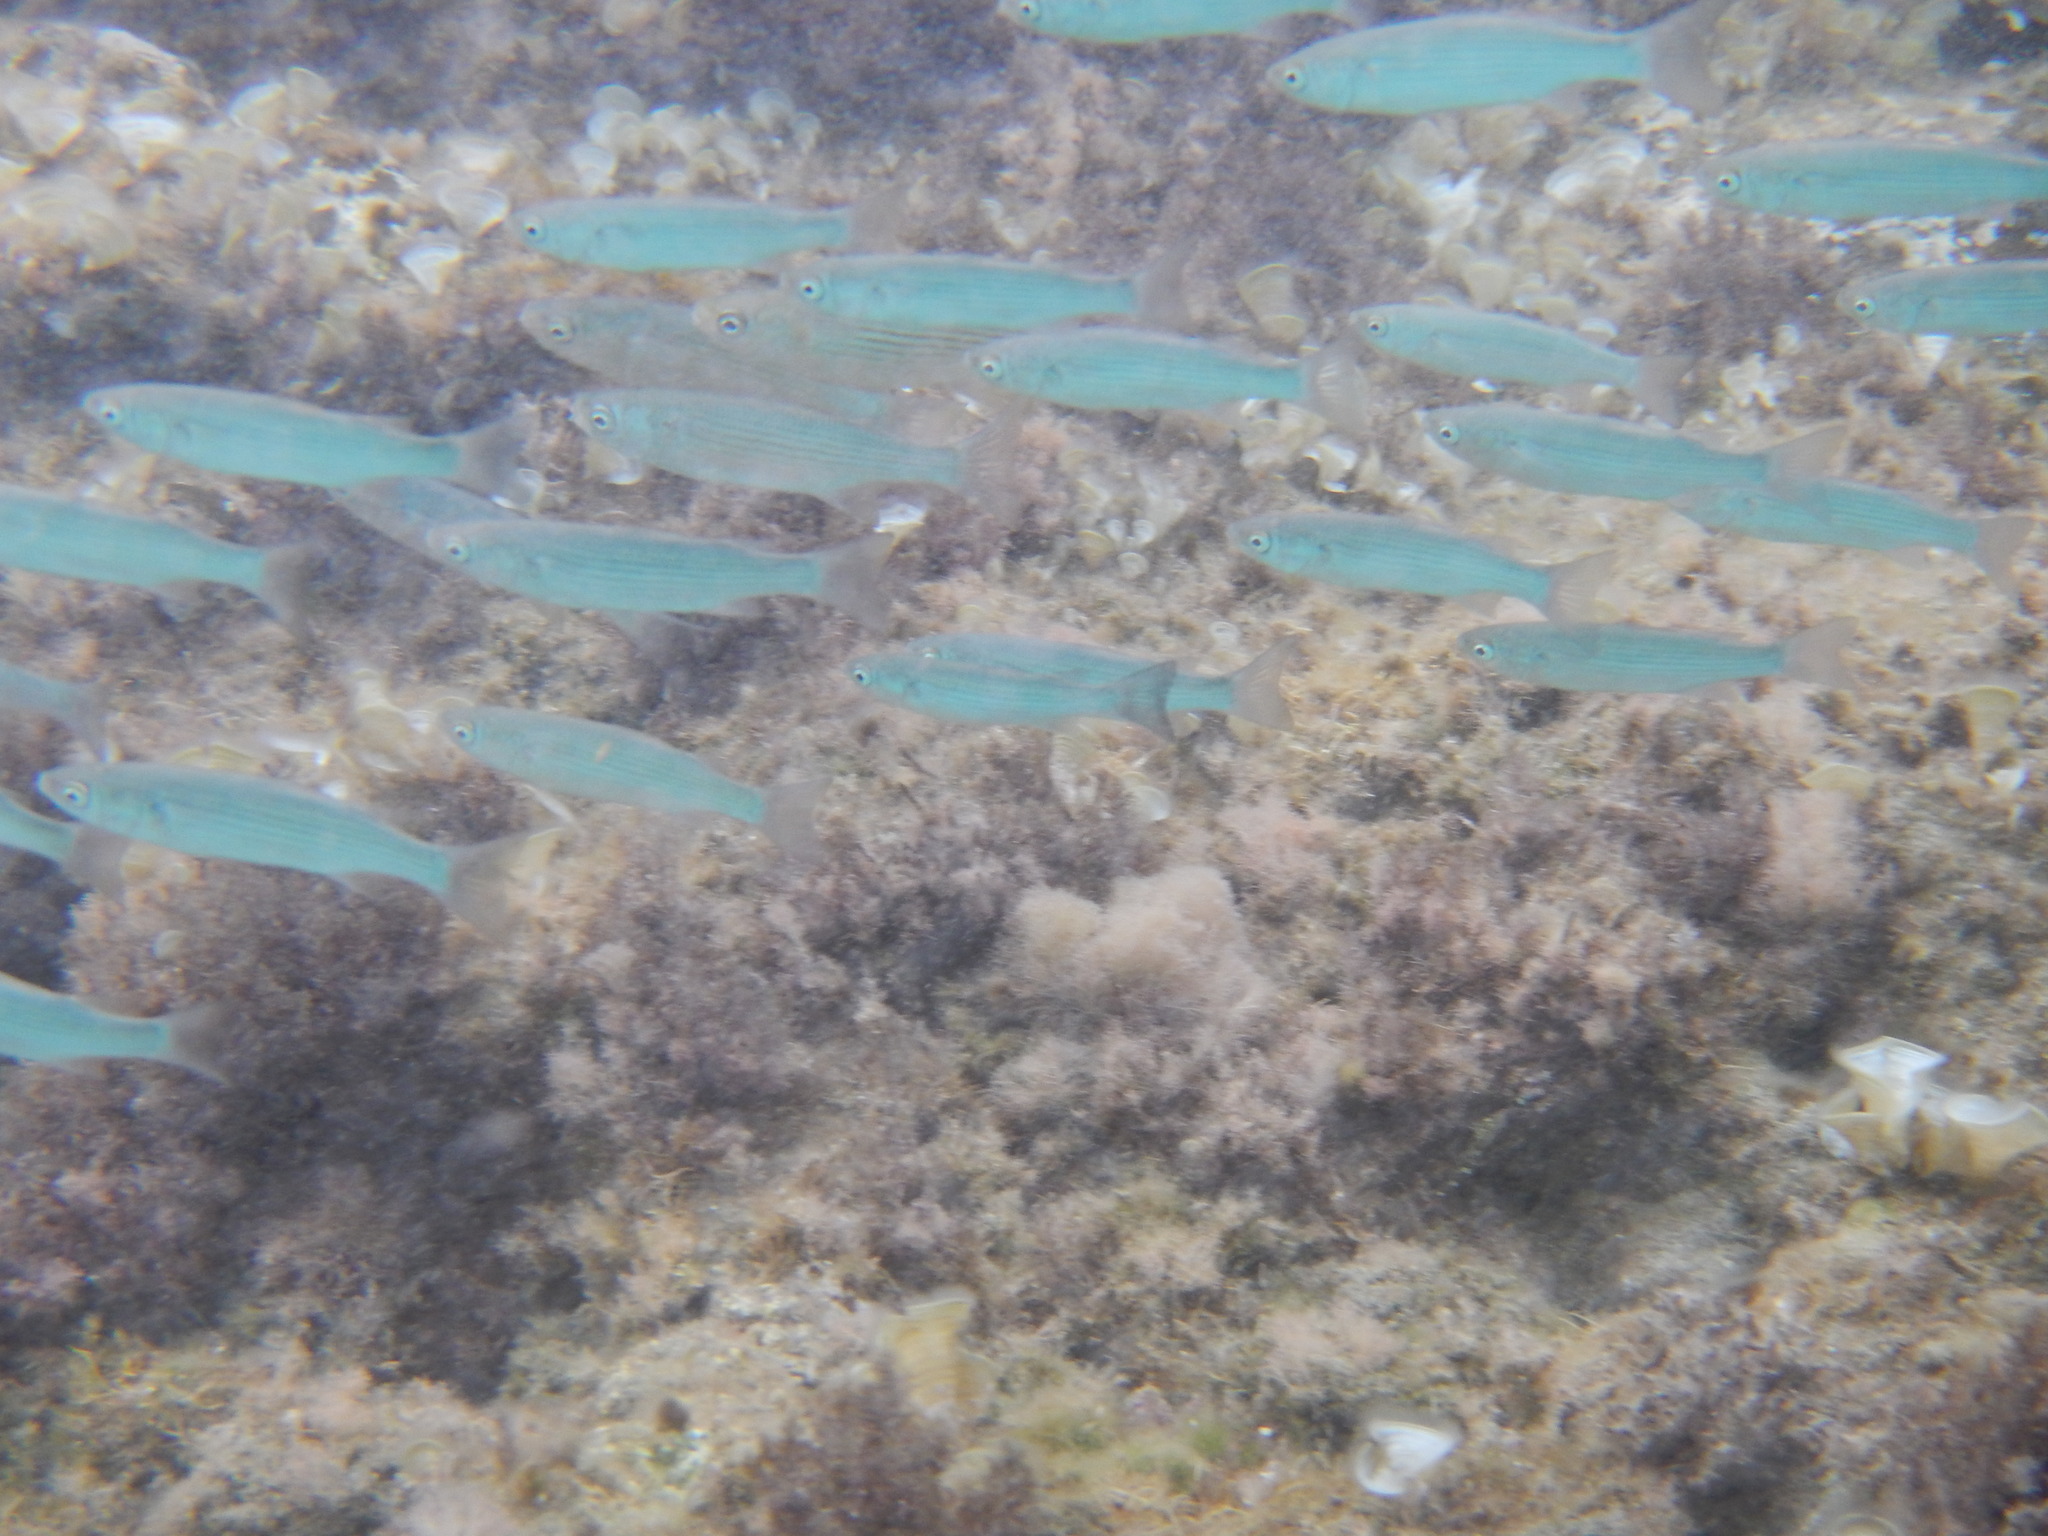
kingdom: Animalia
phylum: Chordata
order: Mugiliformes
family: Mugilidae
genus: Oedalechilus
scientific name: Oedalechilus labeo
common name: Boxlip mullet
